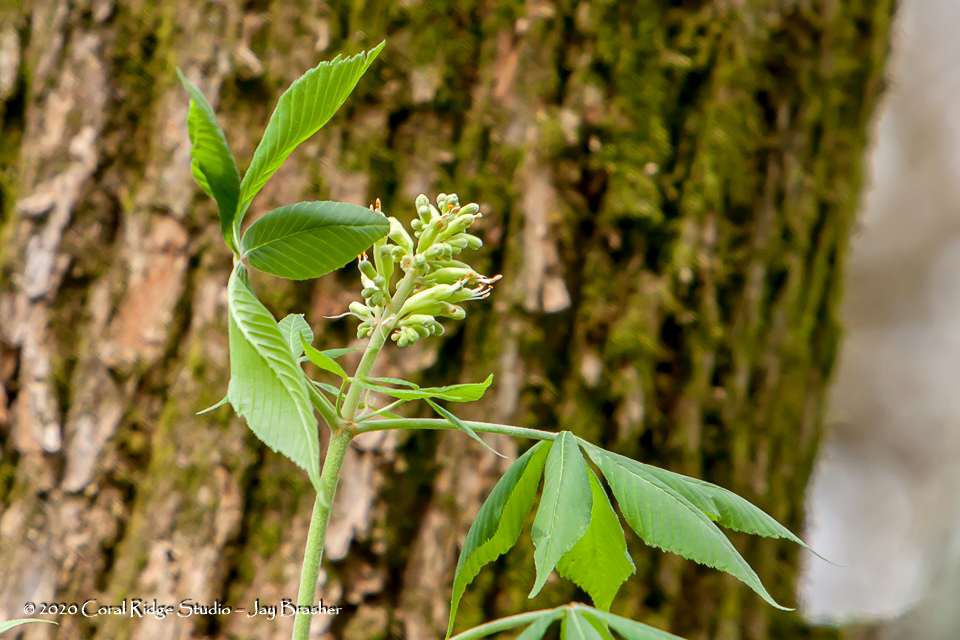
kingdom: Plantae
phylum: Tracheophyta
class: Magnoliopsida
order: Sapindales
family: Sapindaceae
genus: Aesculus
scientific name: Aesculus flava
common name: Yellow buckeye
